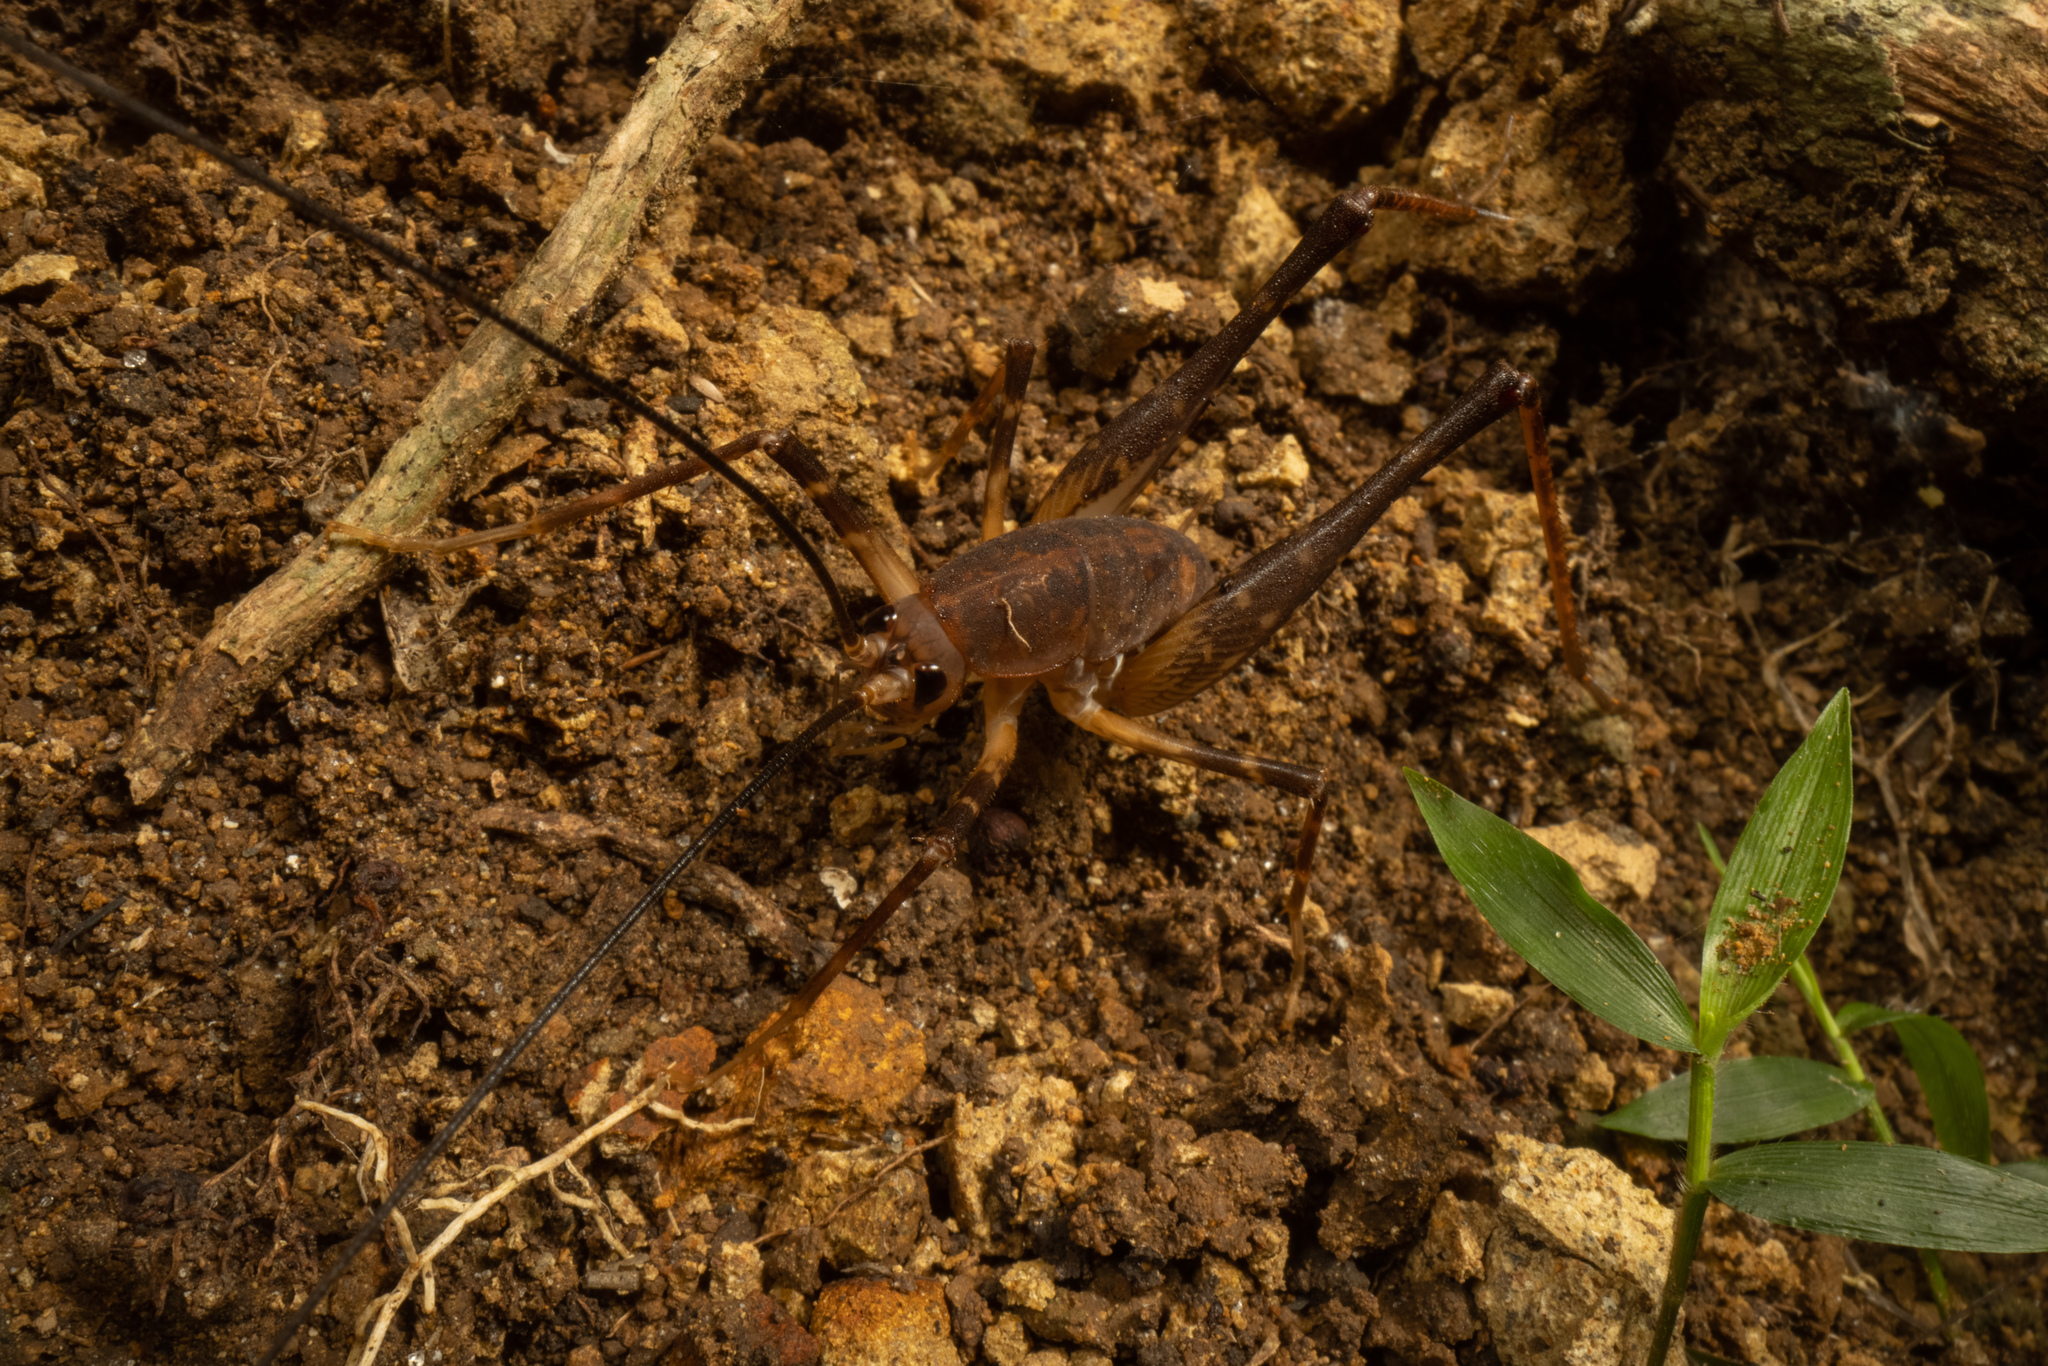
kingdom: Animalia
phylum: Arthropoda
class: Insecta
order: Orthoptera
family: Rhaphidophoridae
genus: Pachyrhamma
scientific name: Pachyrhamma unicolor
